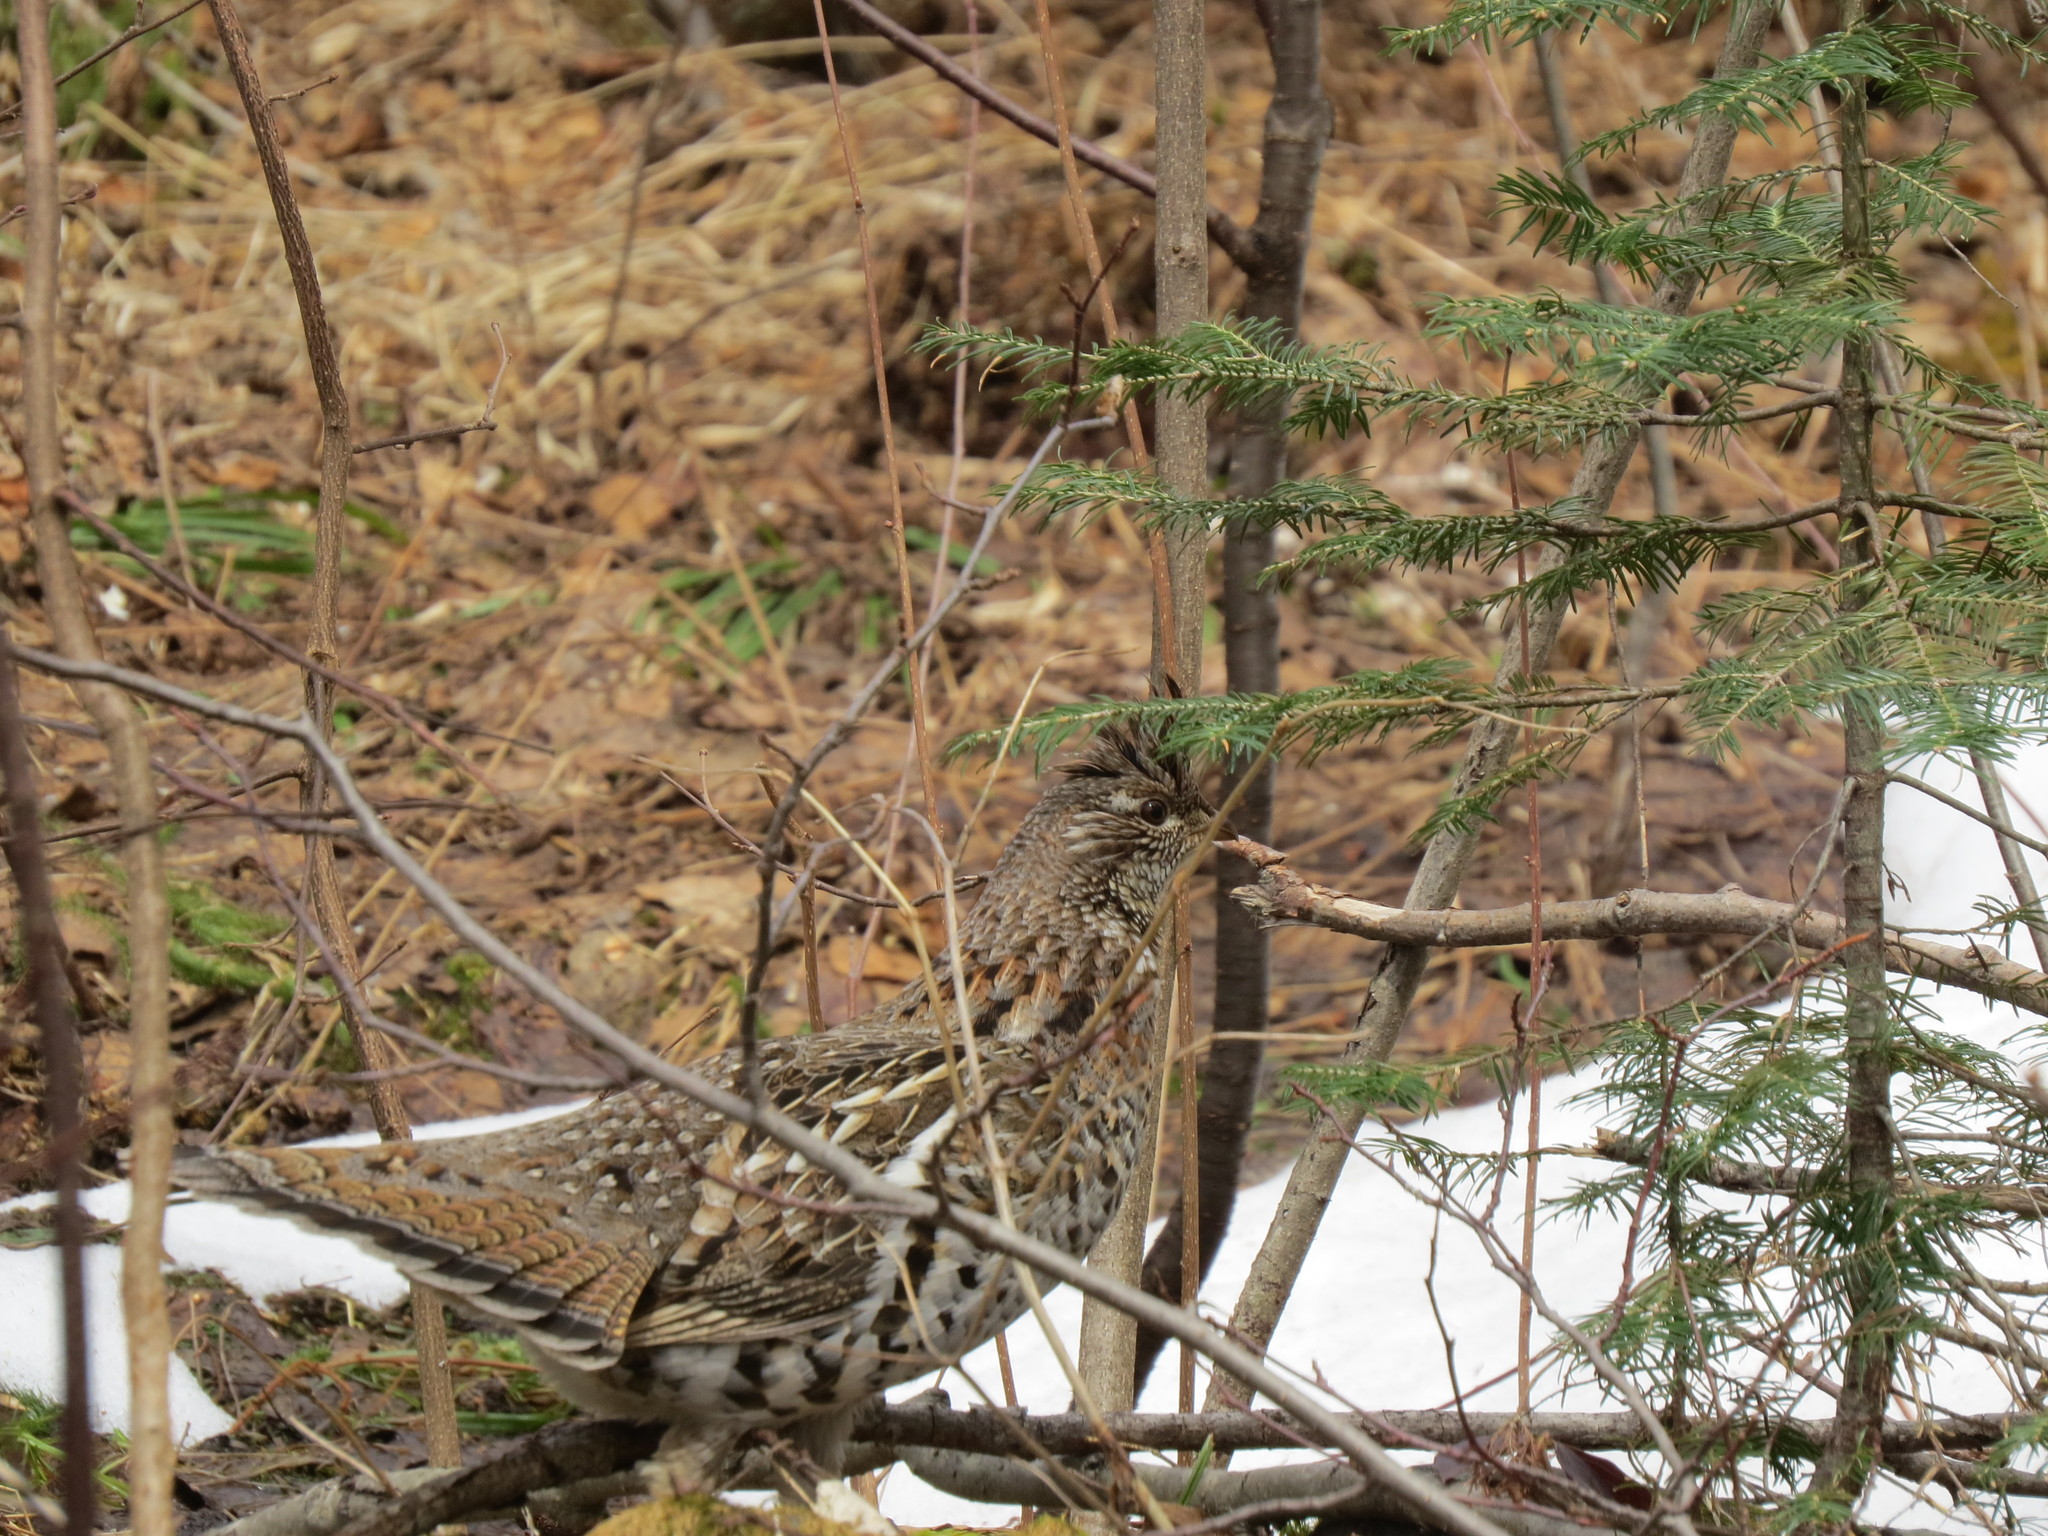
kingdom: Animalia
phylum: Chordata
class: Aves
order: Galliformes
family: Phasianidae
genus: Bonasa
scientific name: Bonasa umbellus
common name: Ruffed grouse
